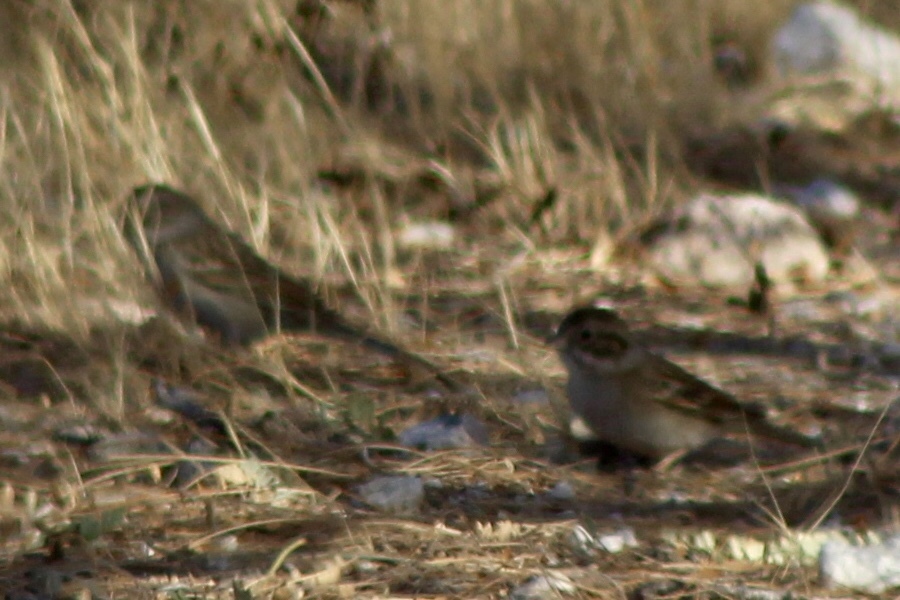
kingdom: Animalia
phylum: Chordata
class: Aves
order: Passeriformes
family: Passerellidae
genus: Spizella
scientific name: Spizella breweri
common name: Brewer's sparrow
